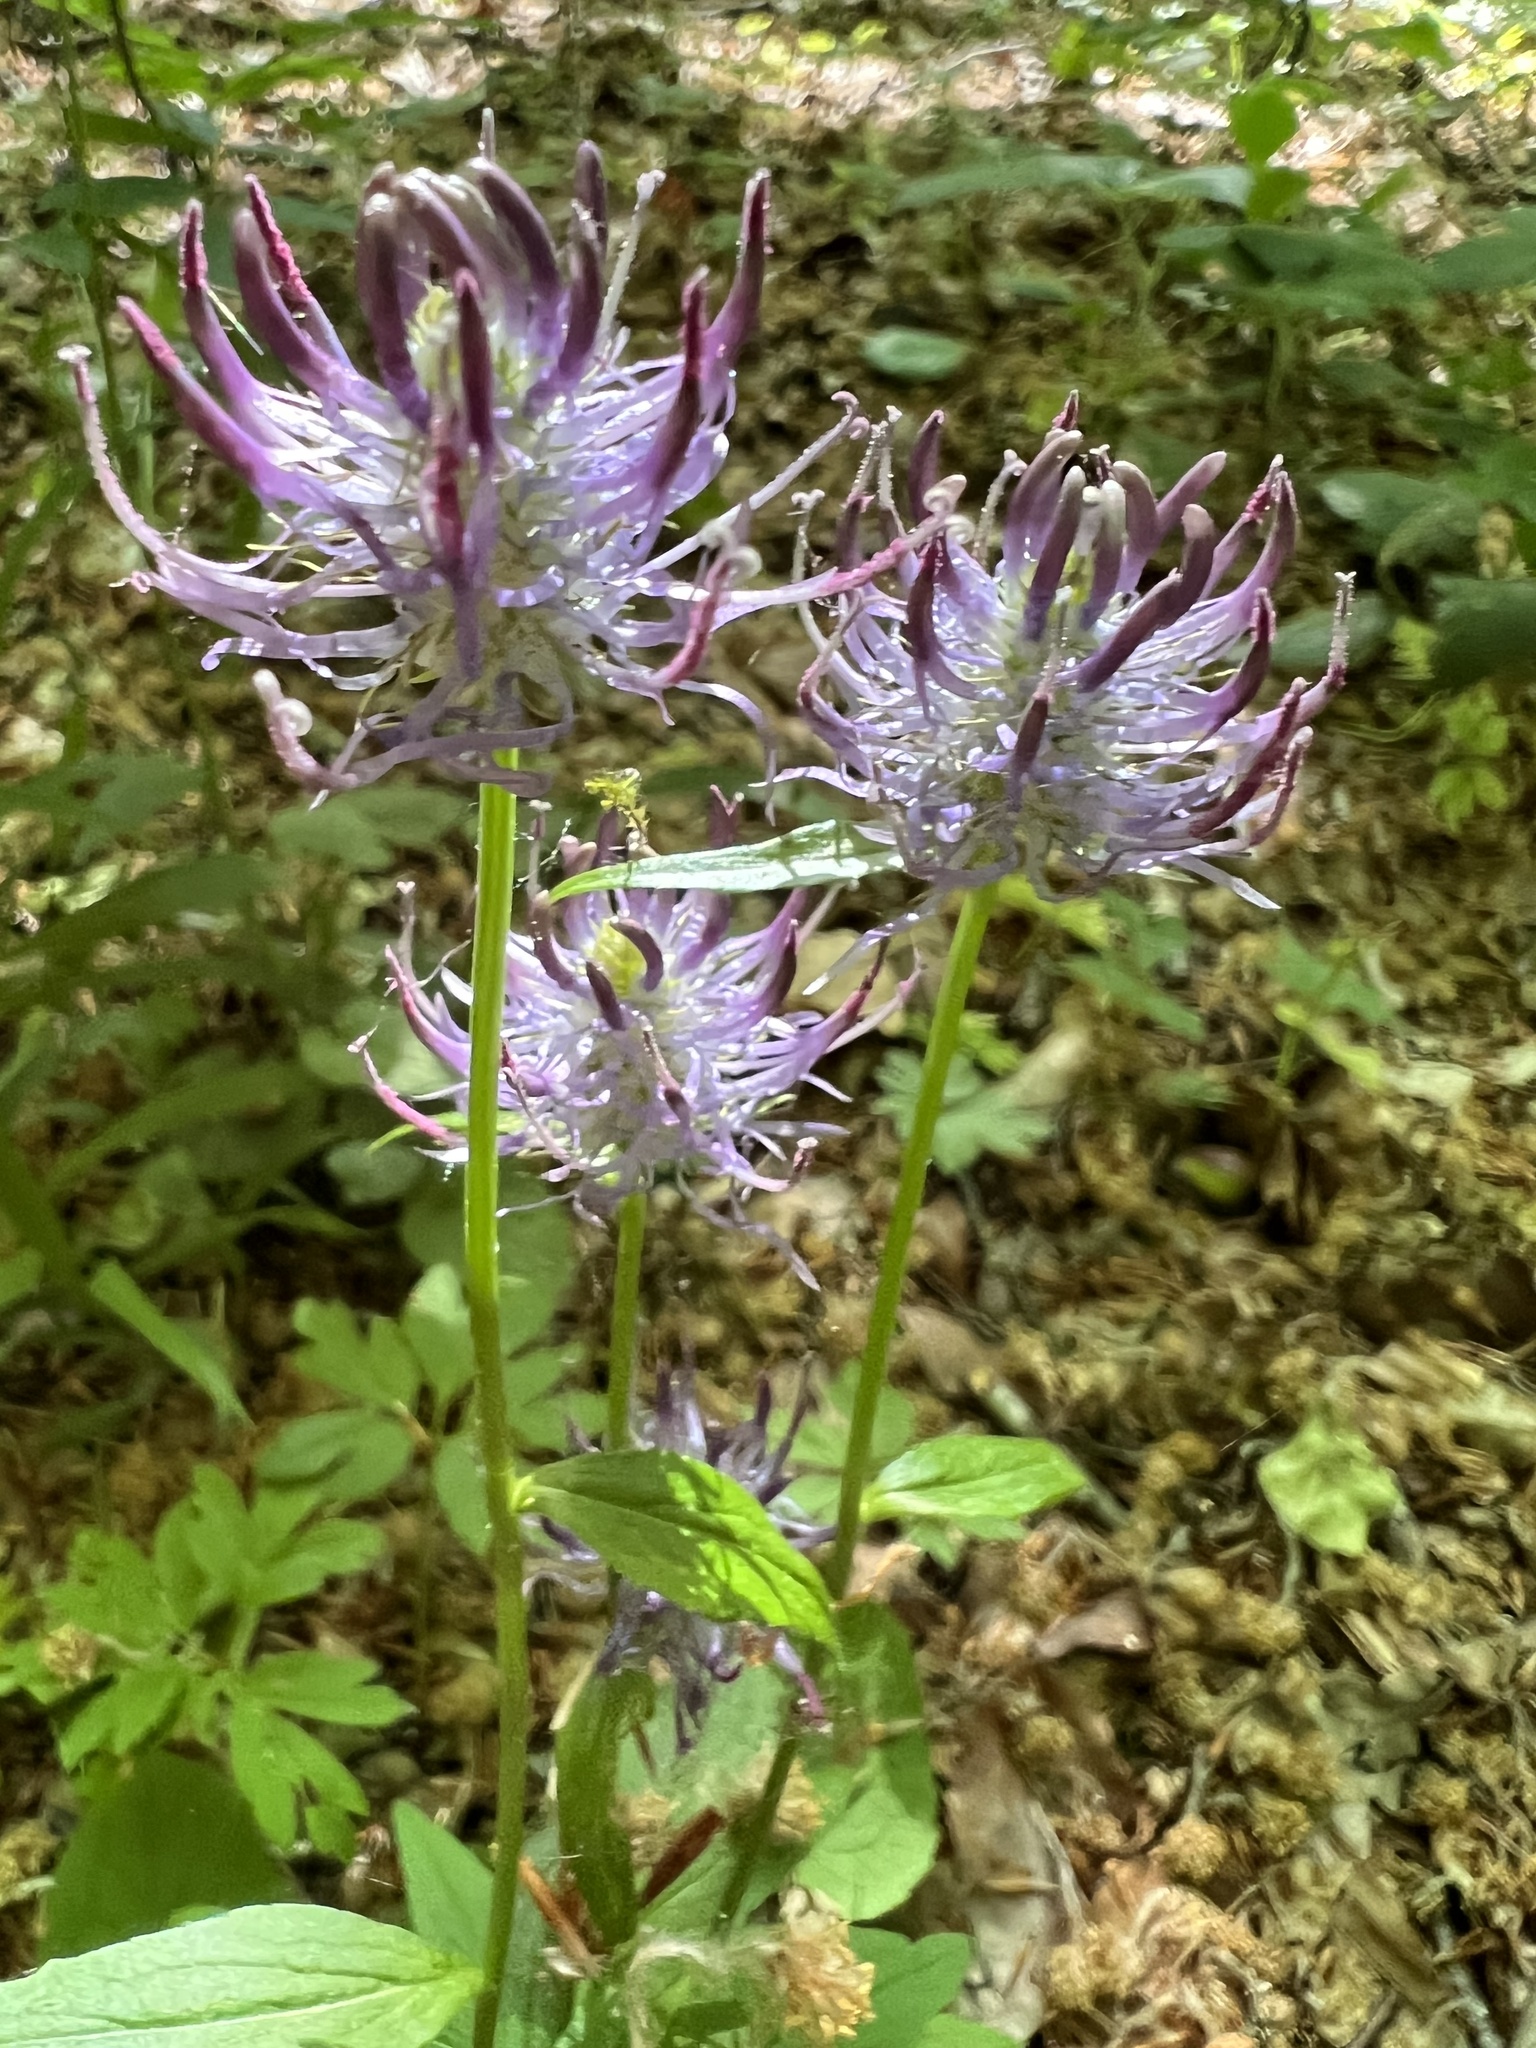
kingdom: Plantae
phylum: Tracheophyta
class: Magnoliopsida
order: Asterales
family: Campanulaceae
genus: Phyteuma
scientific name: Phyteuma nigrum
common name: Black rampion
